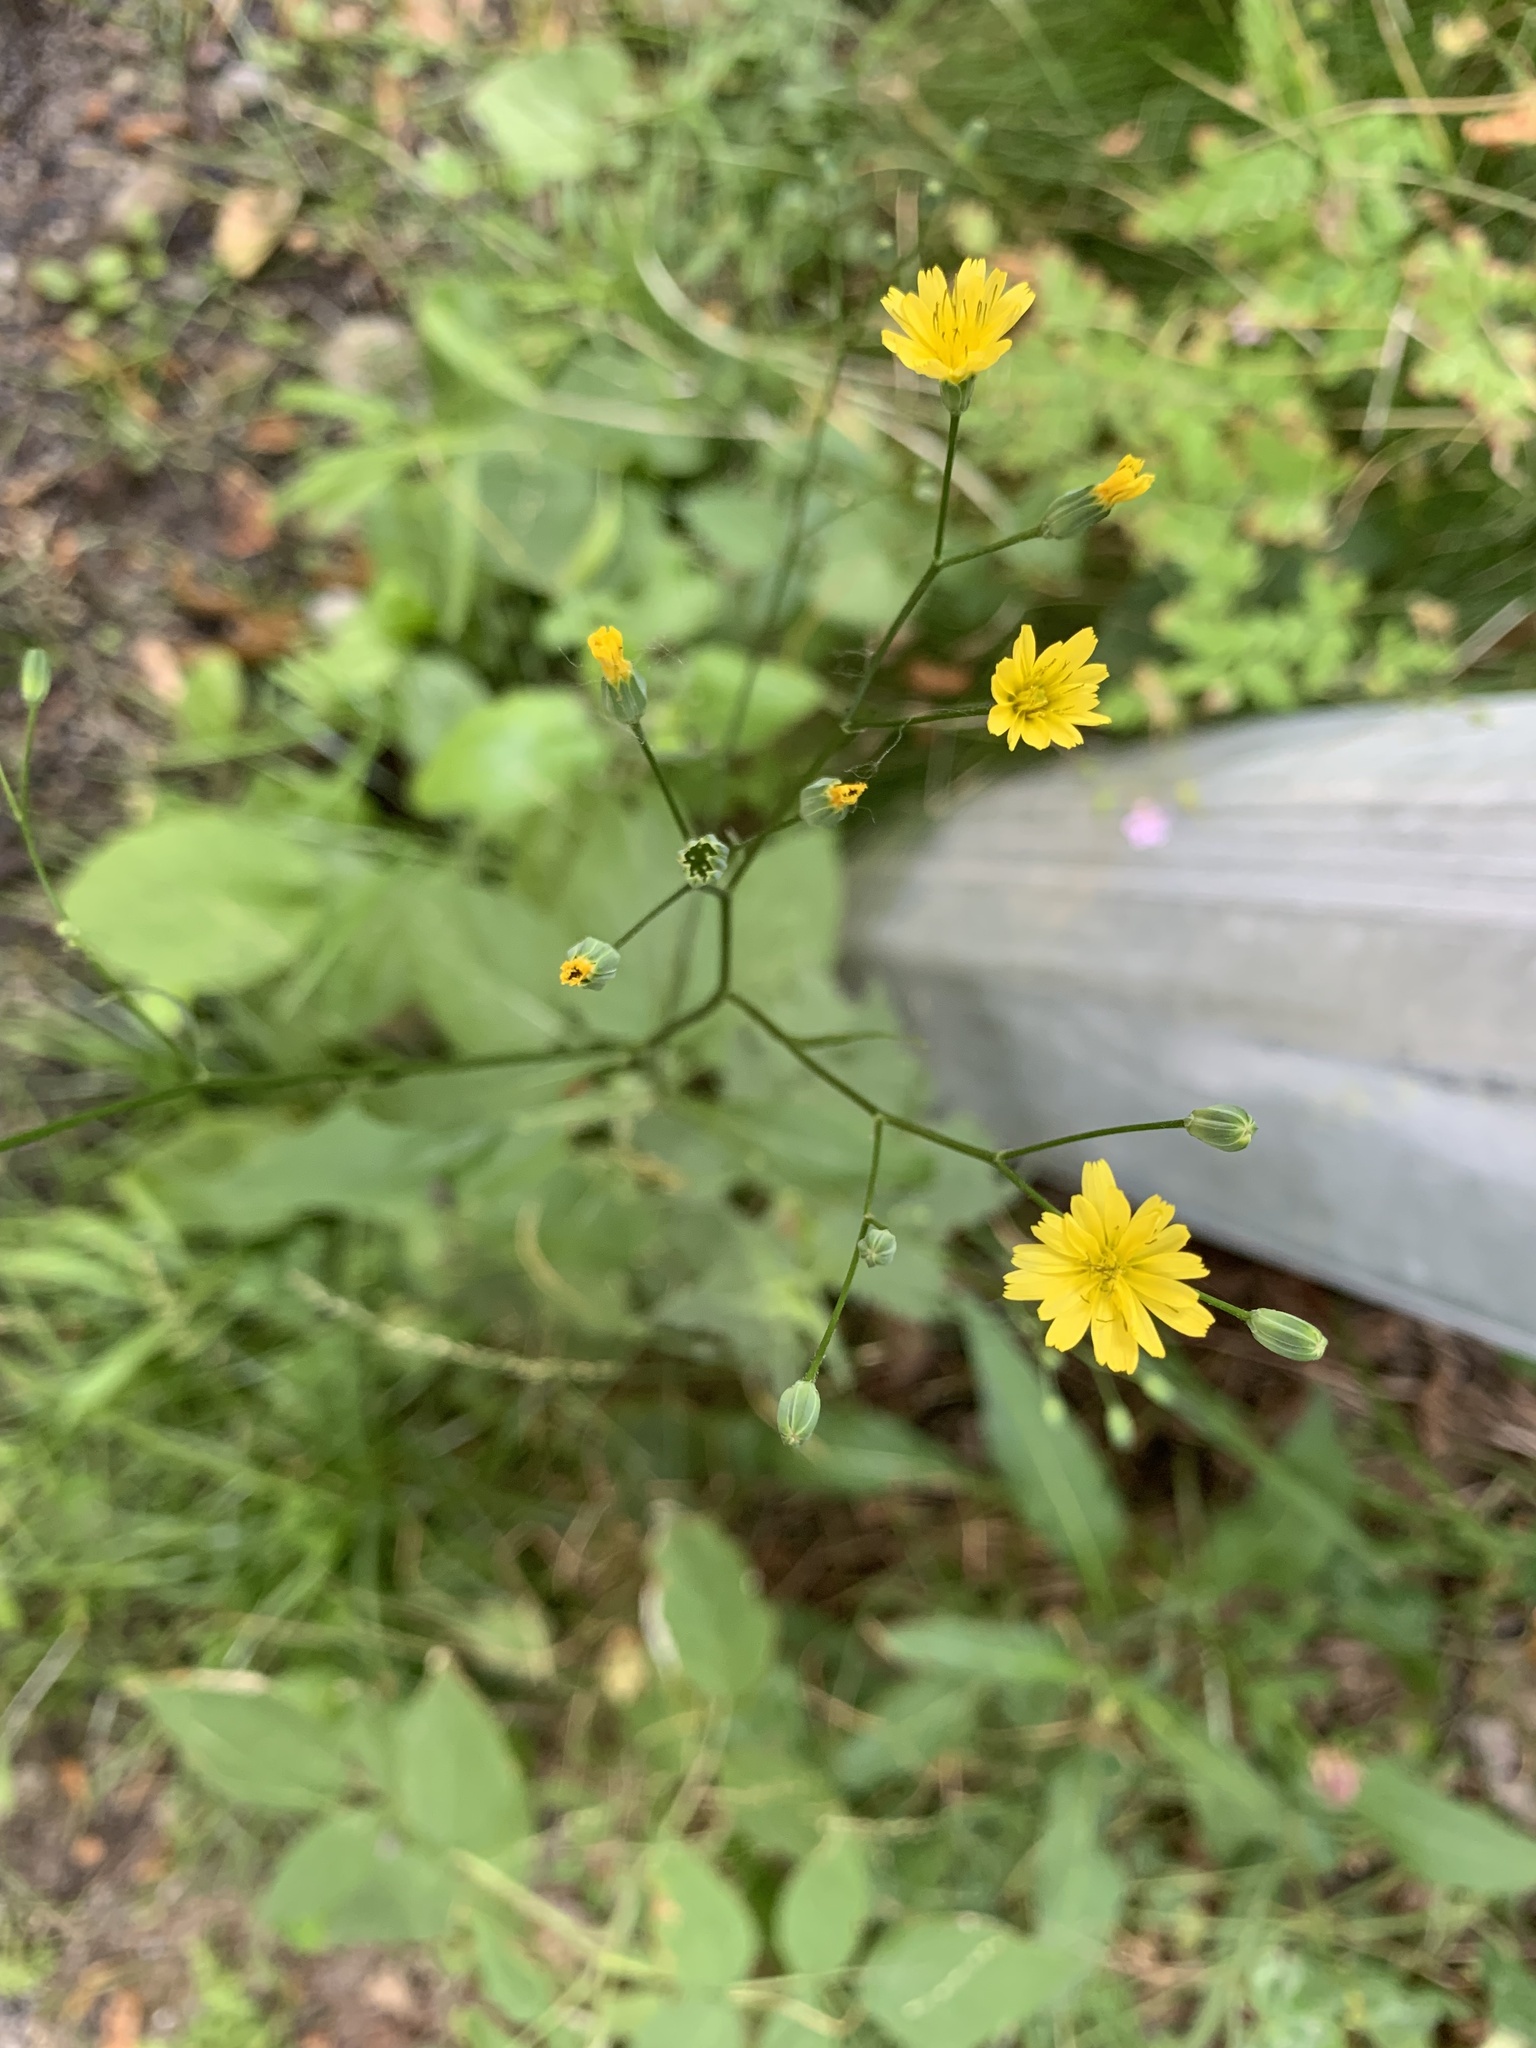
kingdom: Plantae
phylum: Tracheophyta
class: Magnoliopsida
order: Asterales
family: Asteraceae
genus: Lapsana
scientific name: Lapsana communis
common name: Nipplewort
